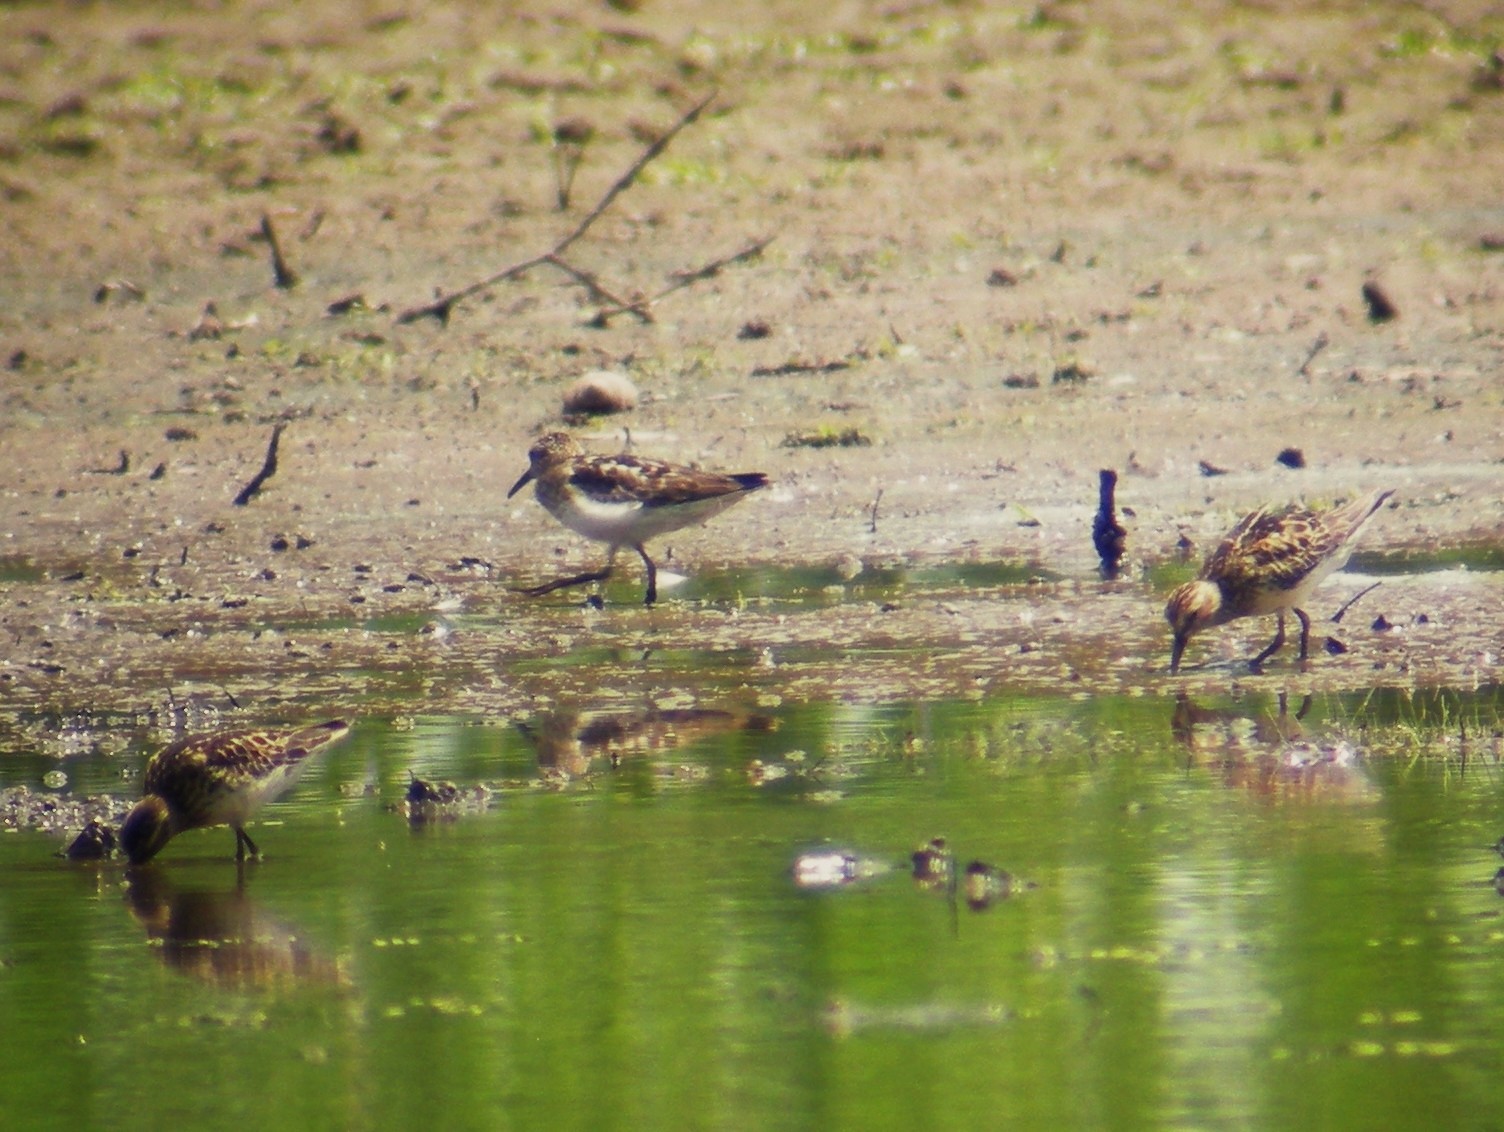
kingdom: Animalia
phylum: Chordata
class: Aves
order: Charadriiformes
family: Scolopacidae
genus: Calidris
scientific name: Calidris minutilla
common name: Least sandpiper
